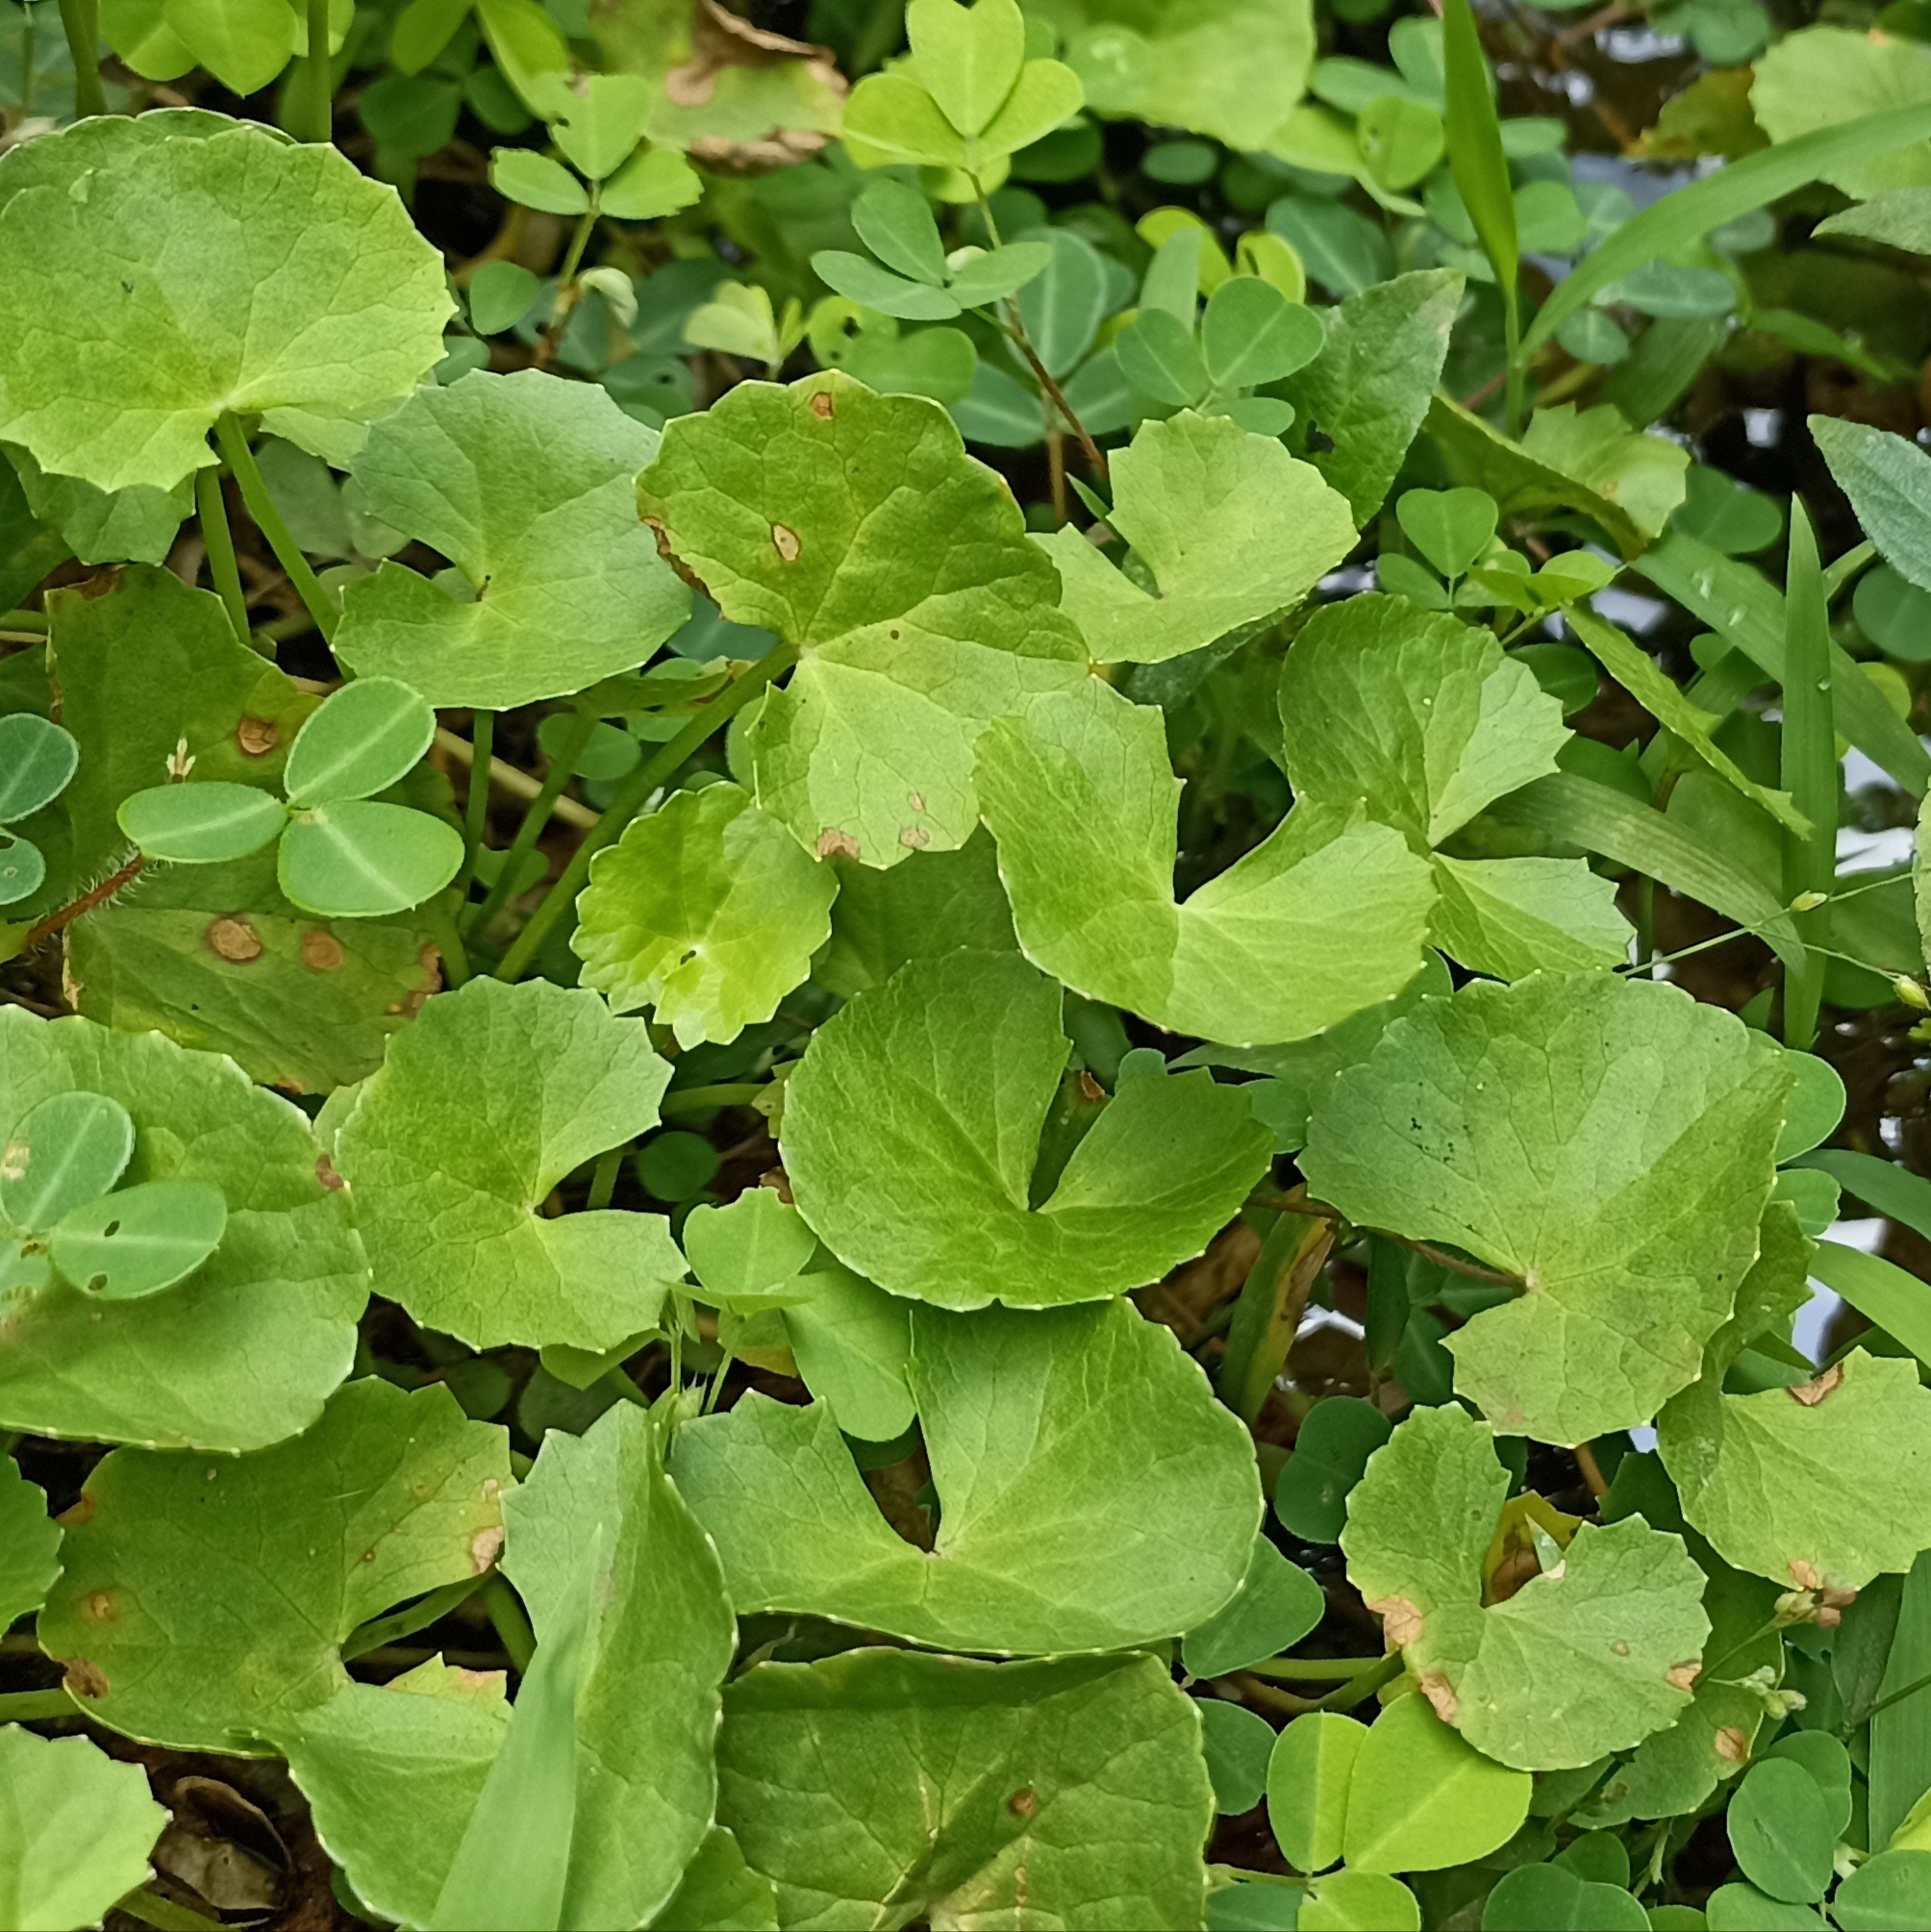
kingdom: Plantae
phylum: Tracheophyta
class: Magnoliopsida
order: Apiales
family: Apiaceae
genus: Centella
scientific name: Centella asiatica
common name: Spadeleaf
